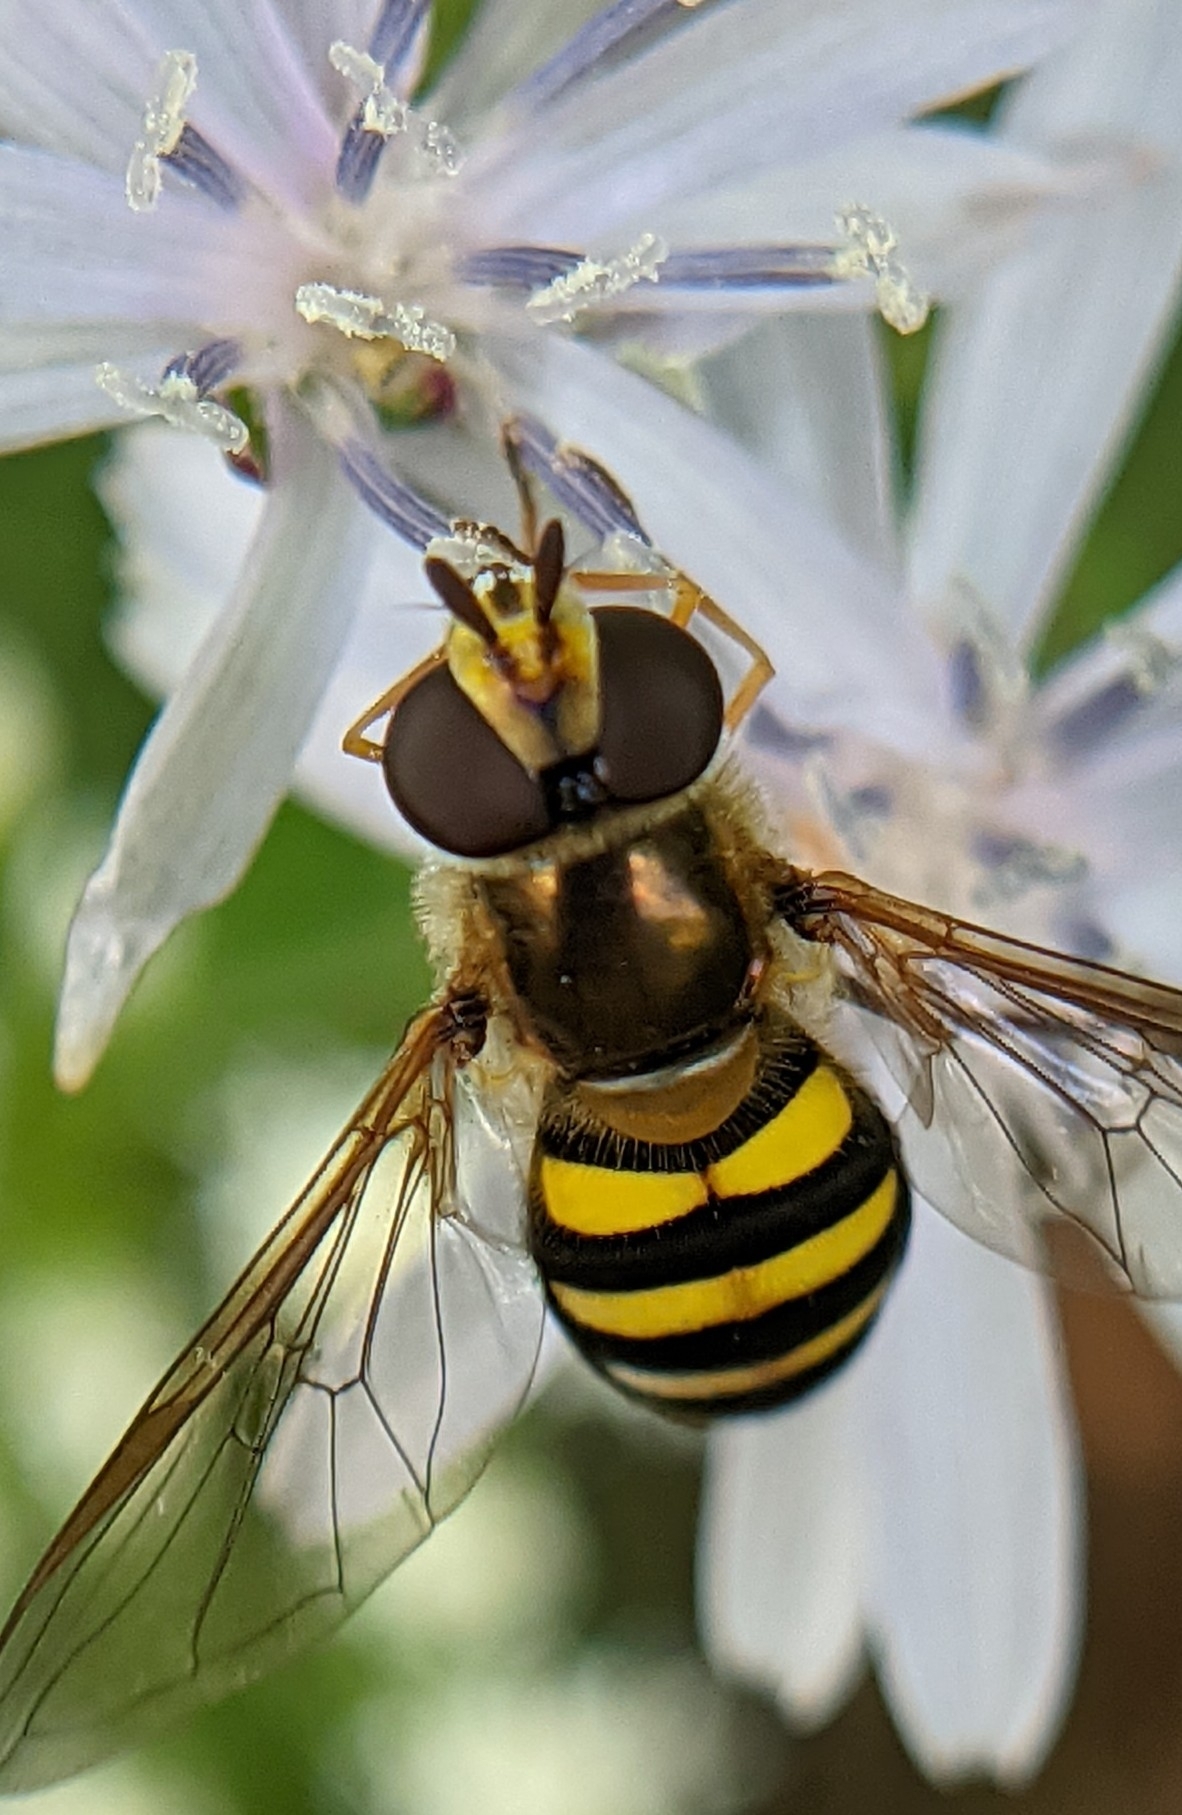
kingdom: Animalia
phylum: Arthropoda
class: Insecta
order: Diptera
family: Syrphidae
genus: Eupeodes
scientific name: Eupeodes
